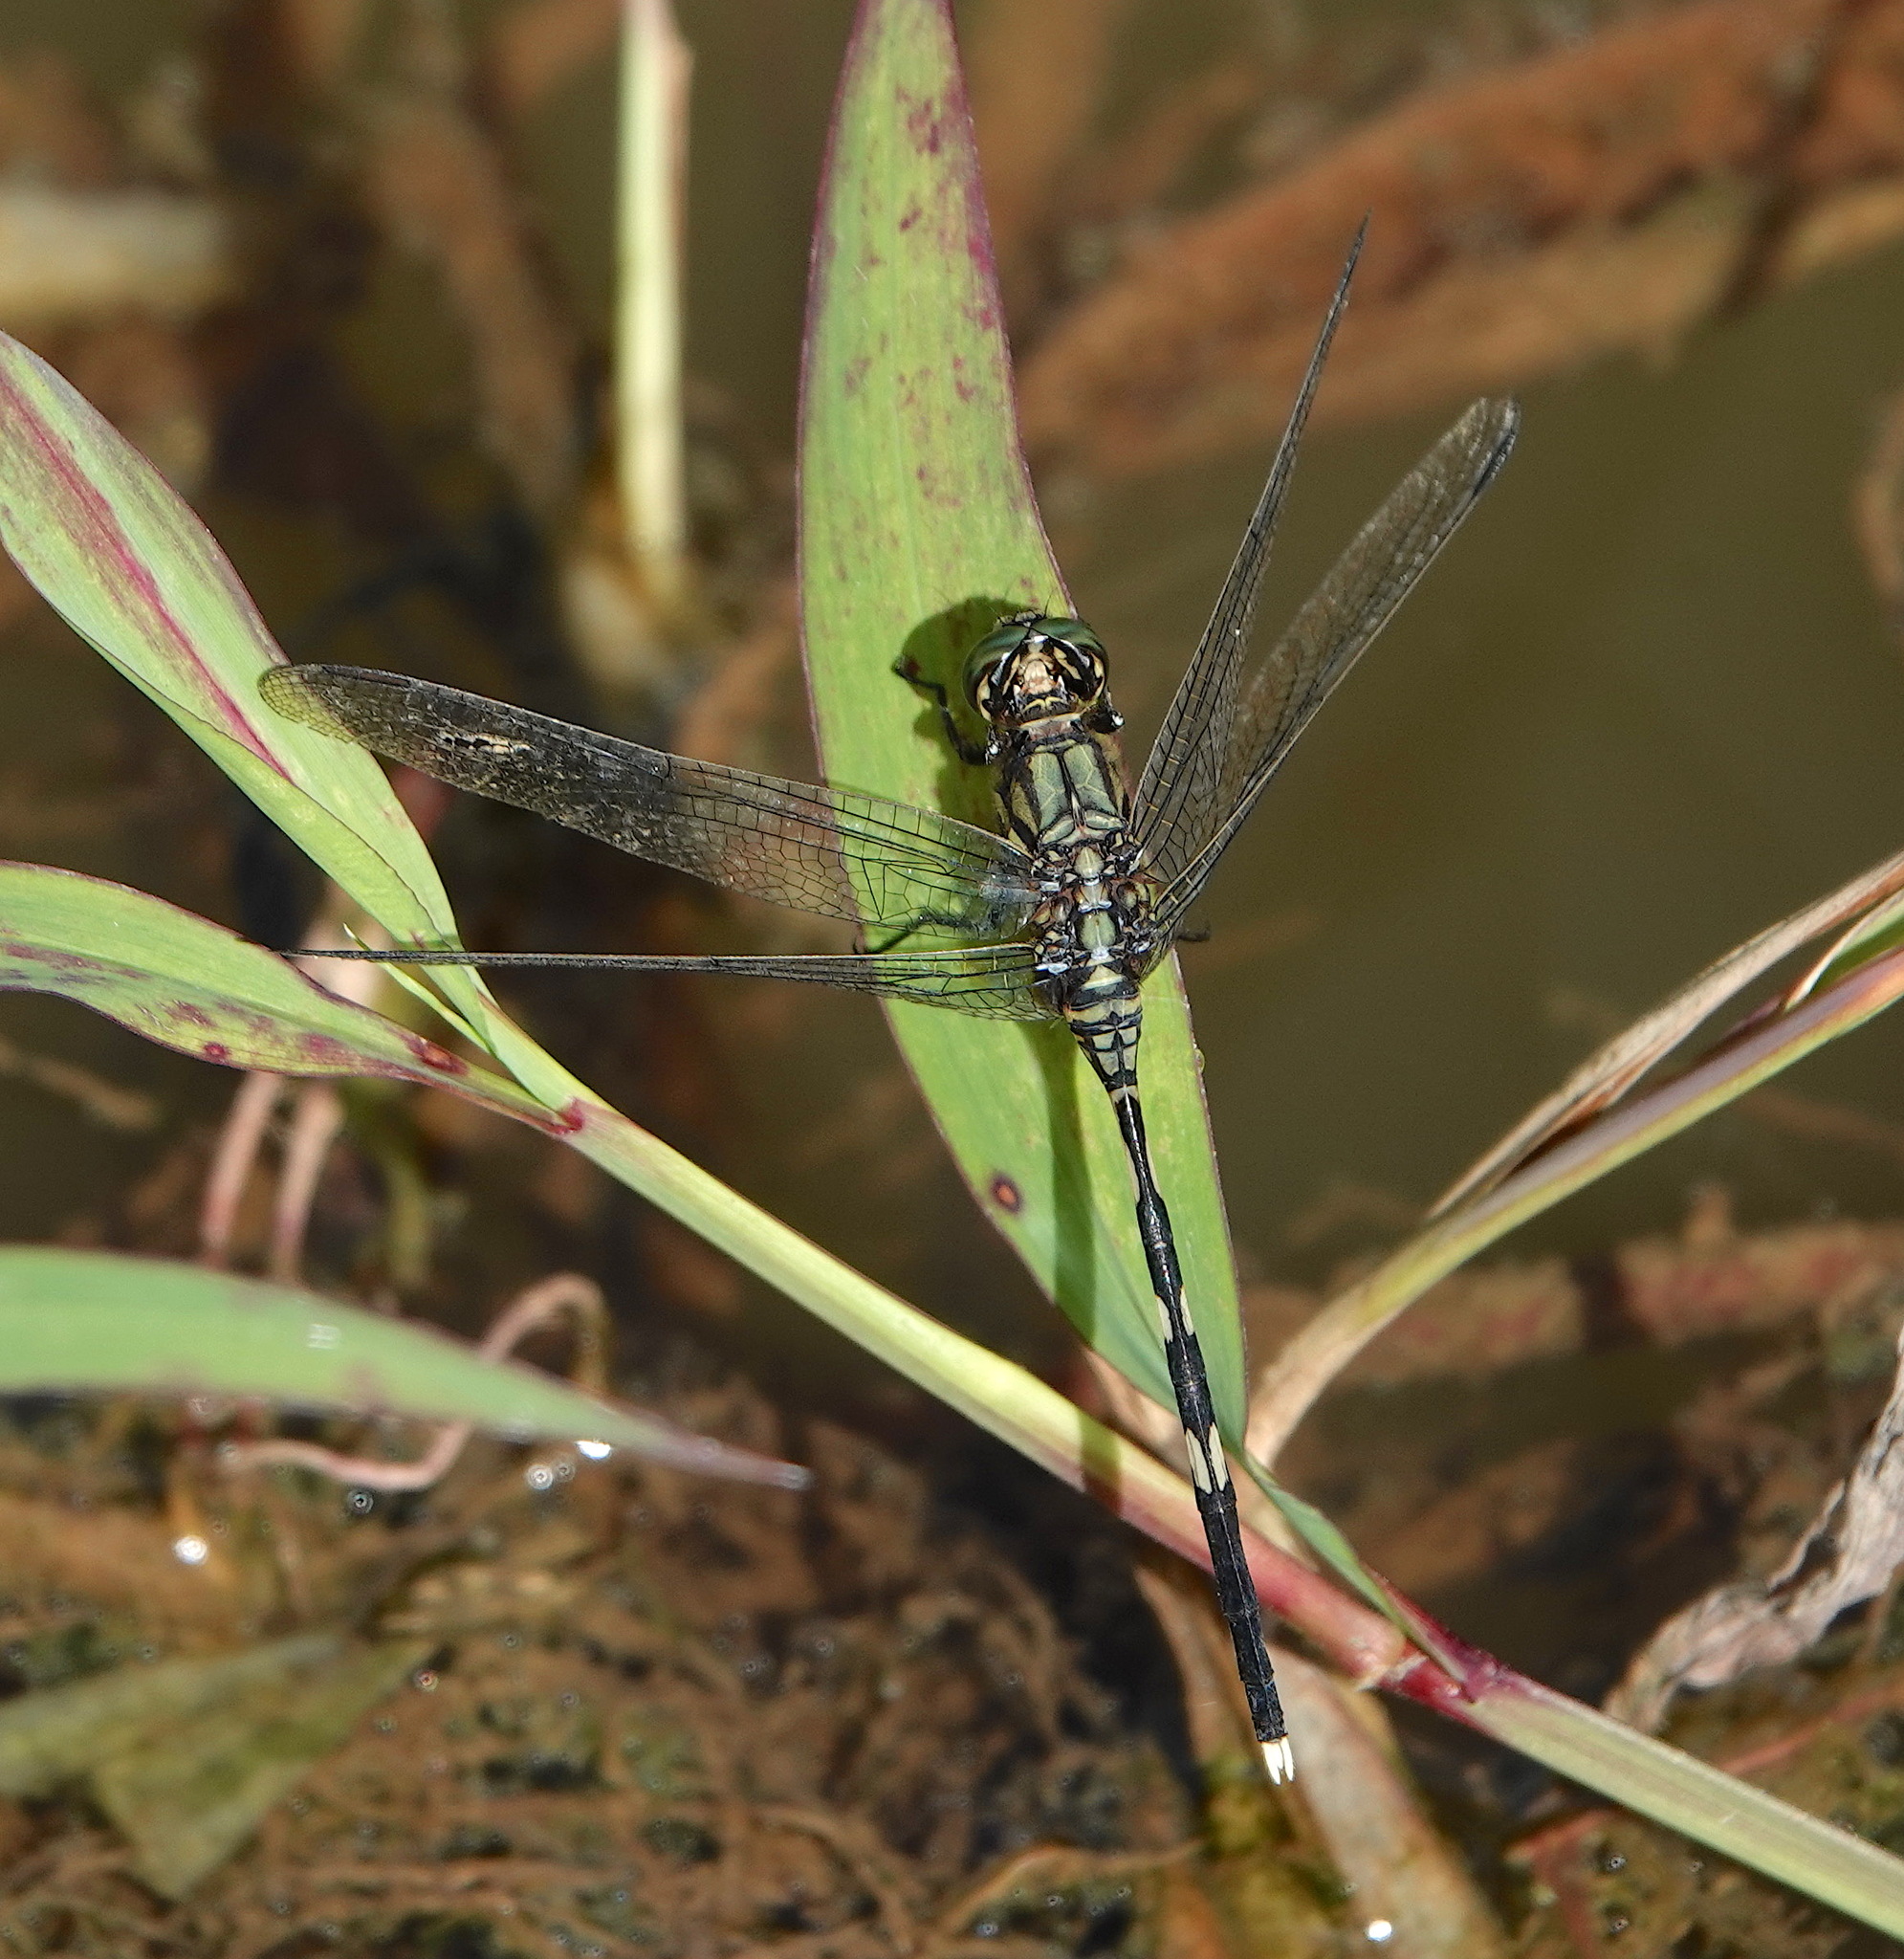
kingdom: Animalia
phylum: Arthropoda
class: Insecta
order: Odonata
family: Libellulidae
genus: Orthetrum
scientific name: Orthetrum sabina
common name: Slender skimmer
